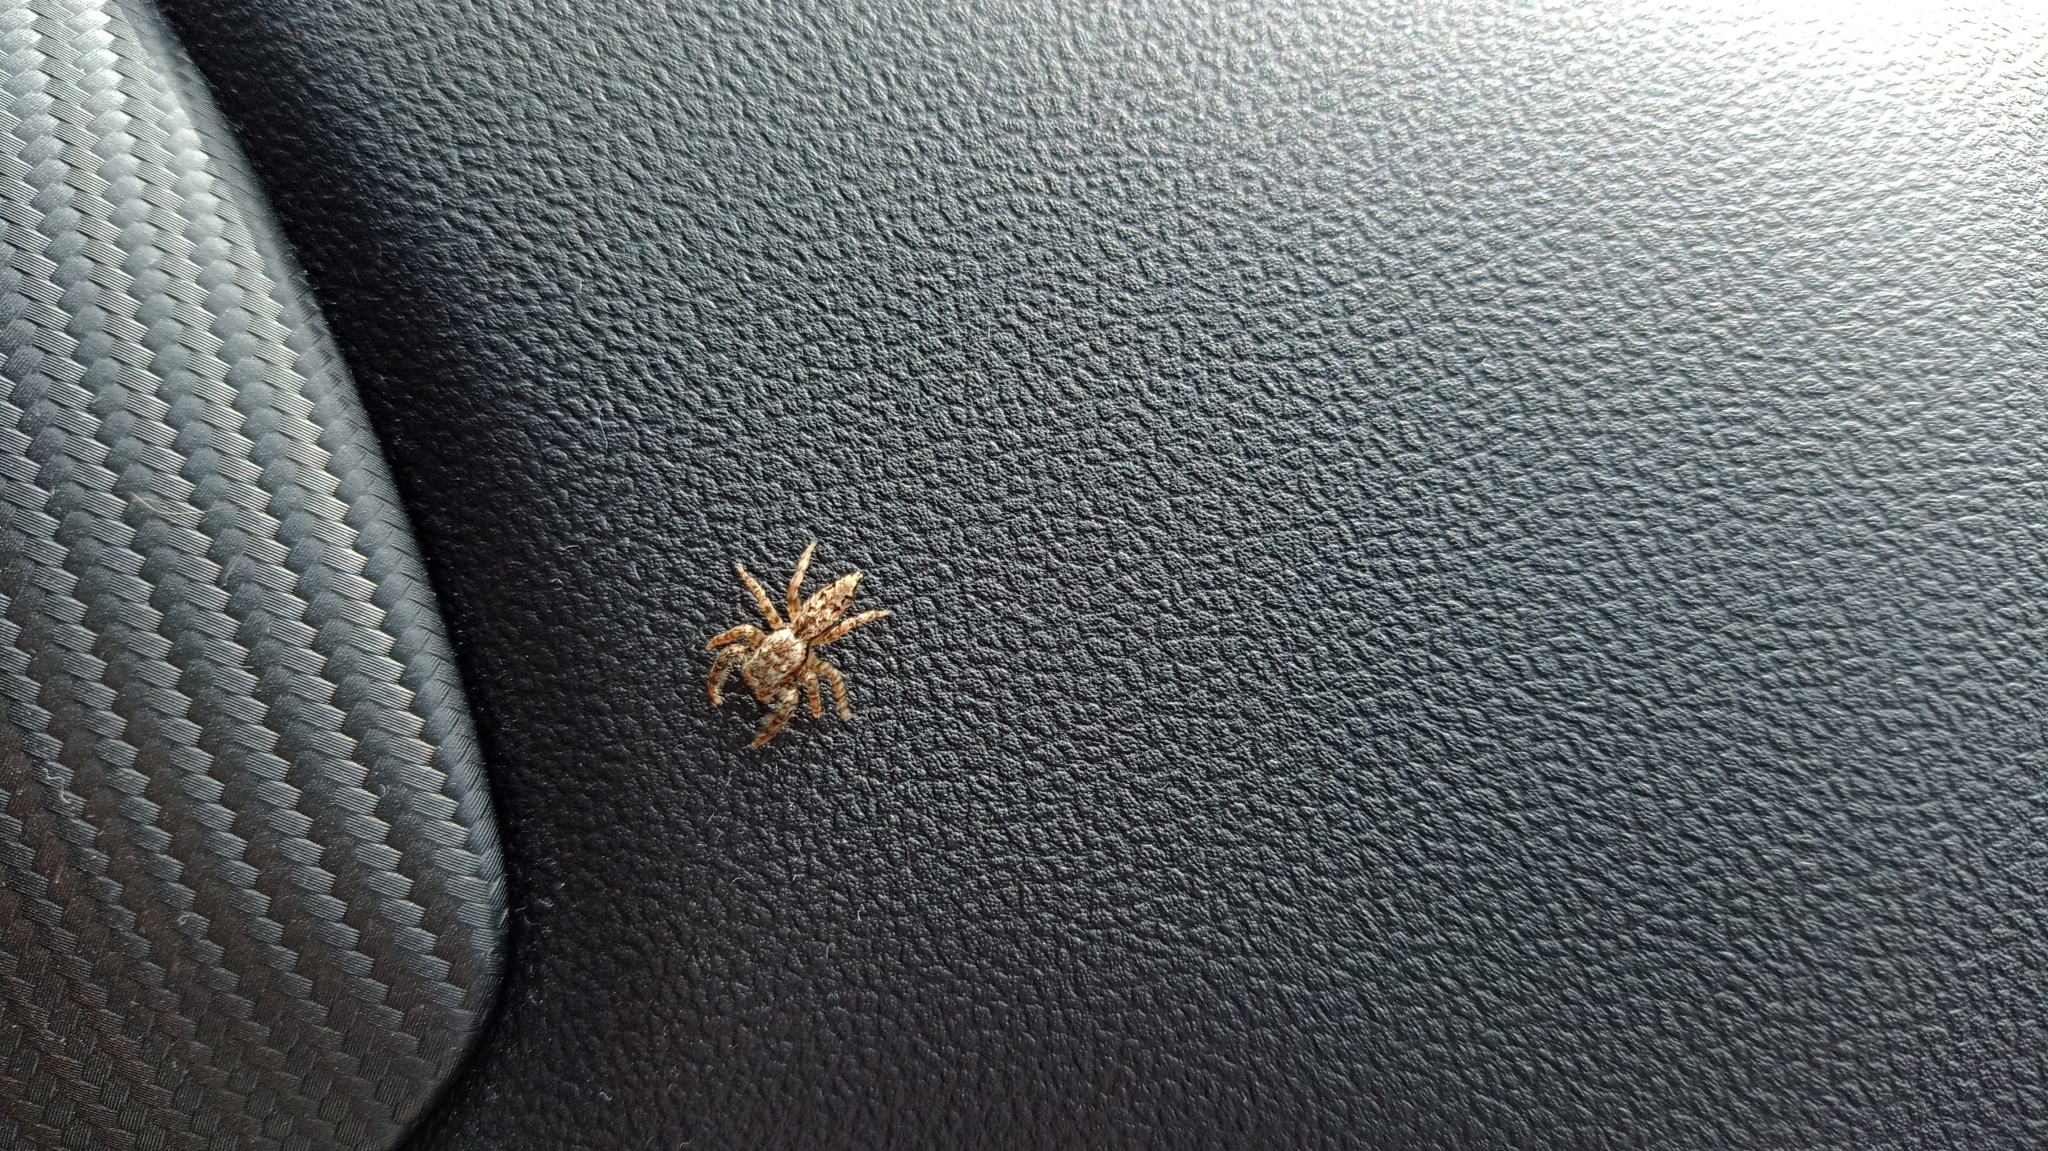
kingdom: Animalia
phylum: Arthropoda
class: Arachnida
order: Araneae
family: Salticidae
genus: Marpissa
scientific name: Marpissa muscosa
